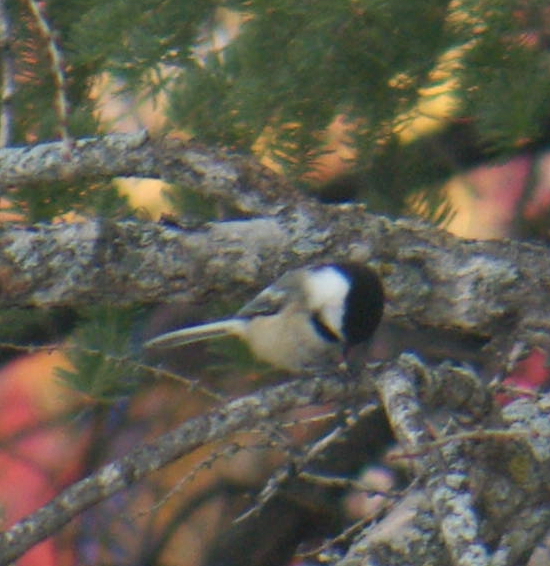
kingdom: Animalia
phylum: Chordata
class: Aves
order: Passeriformes
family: Paridae
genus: Poecile
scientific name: Poecile atricapillus
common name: Black-capped chickadee
